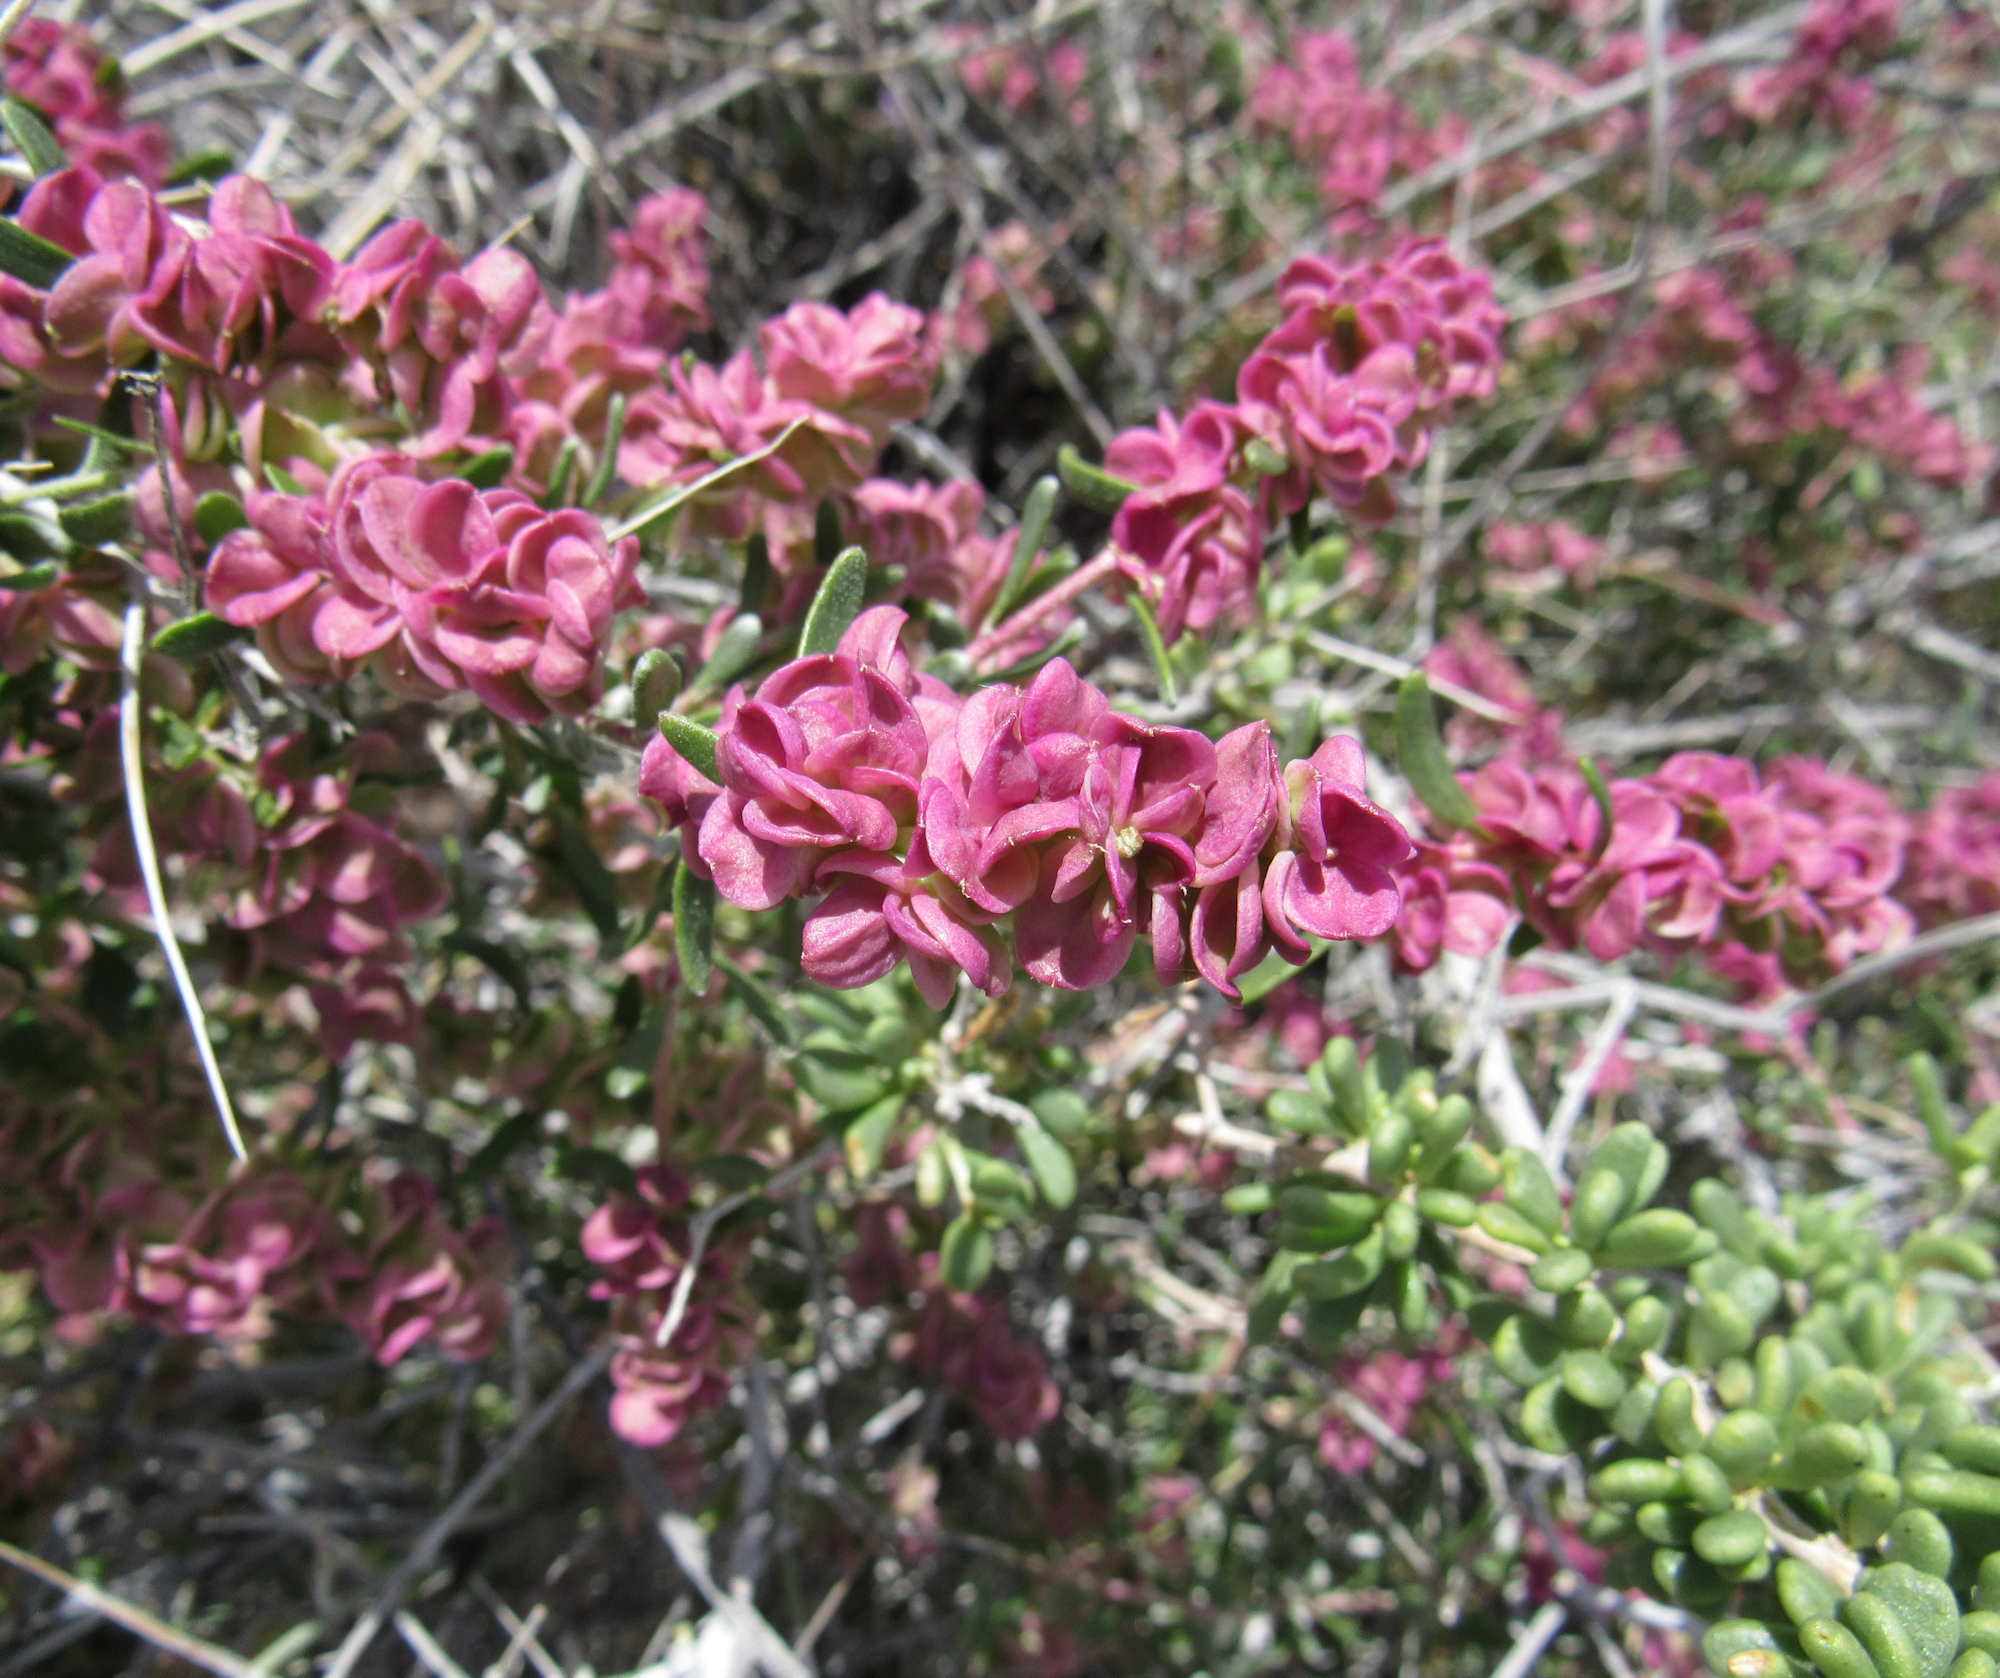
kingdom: Plantae
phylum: Tracheophyta
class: Magnoliopsida
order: Caryophyllales
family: Amaranthaceae
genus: Grayia
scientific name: Grayia spinosa
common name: Spiny hopsage
